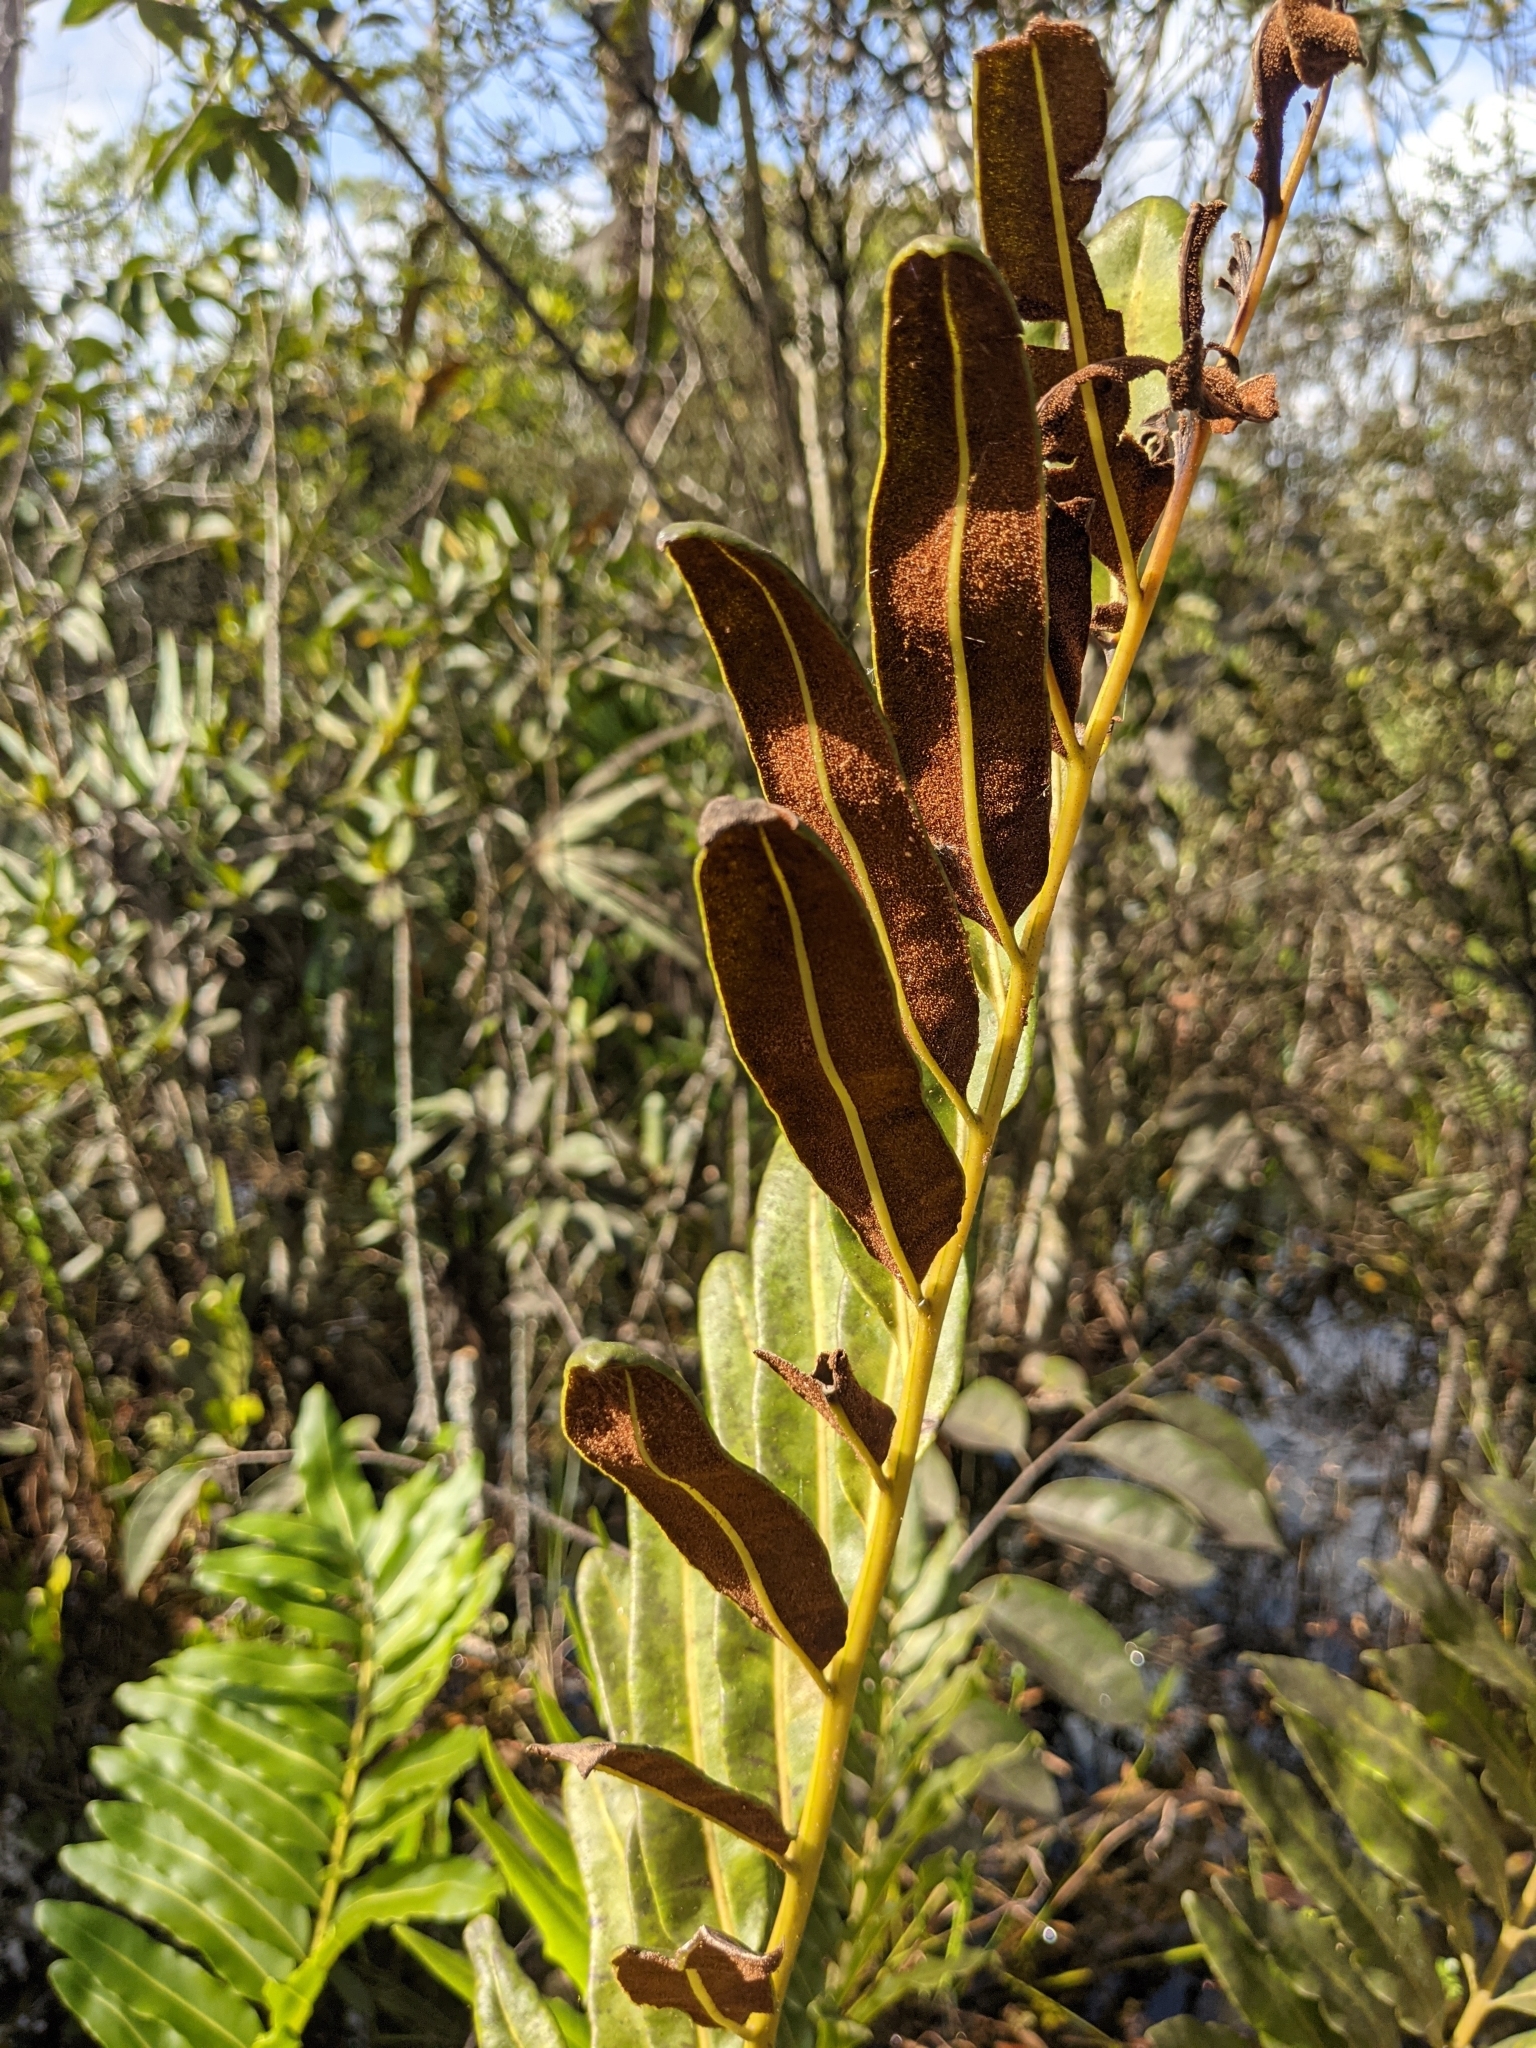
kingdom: Plantae
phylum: Tracheophyta
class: Polypodiopsida
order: Polypodiales
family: Pteridaceae
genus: Acrostichum
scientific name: Acrostichum danaeifolium
